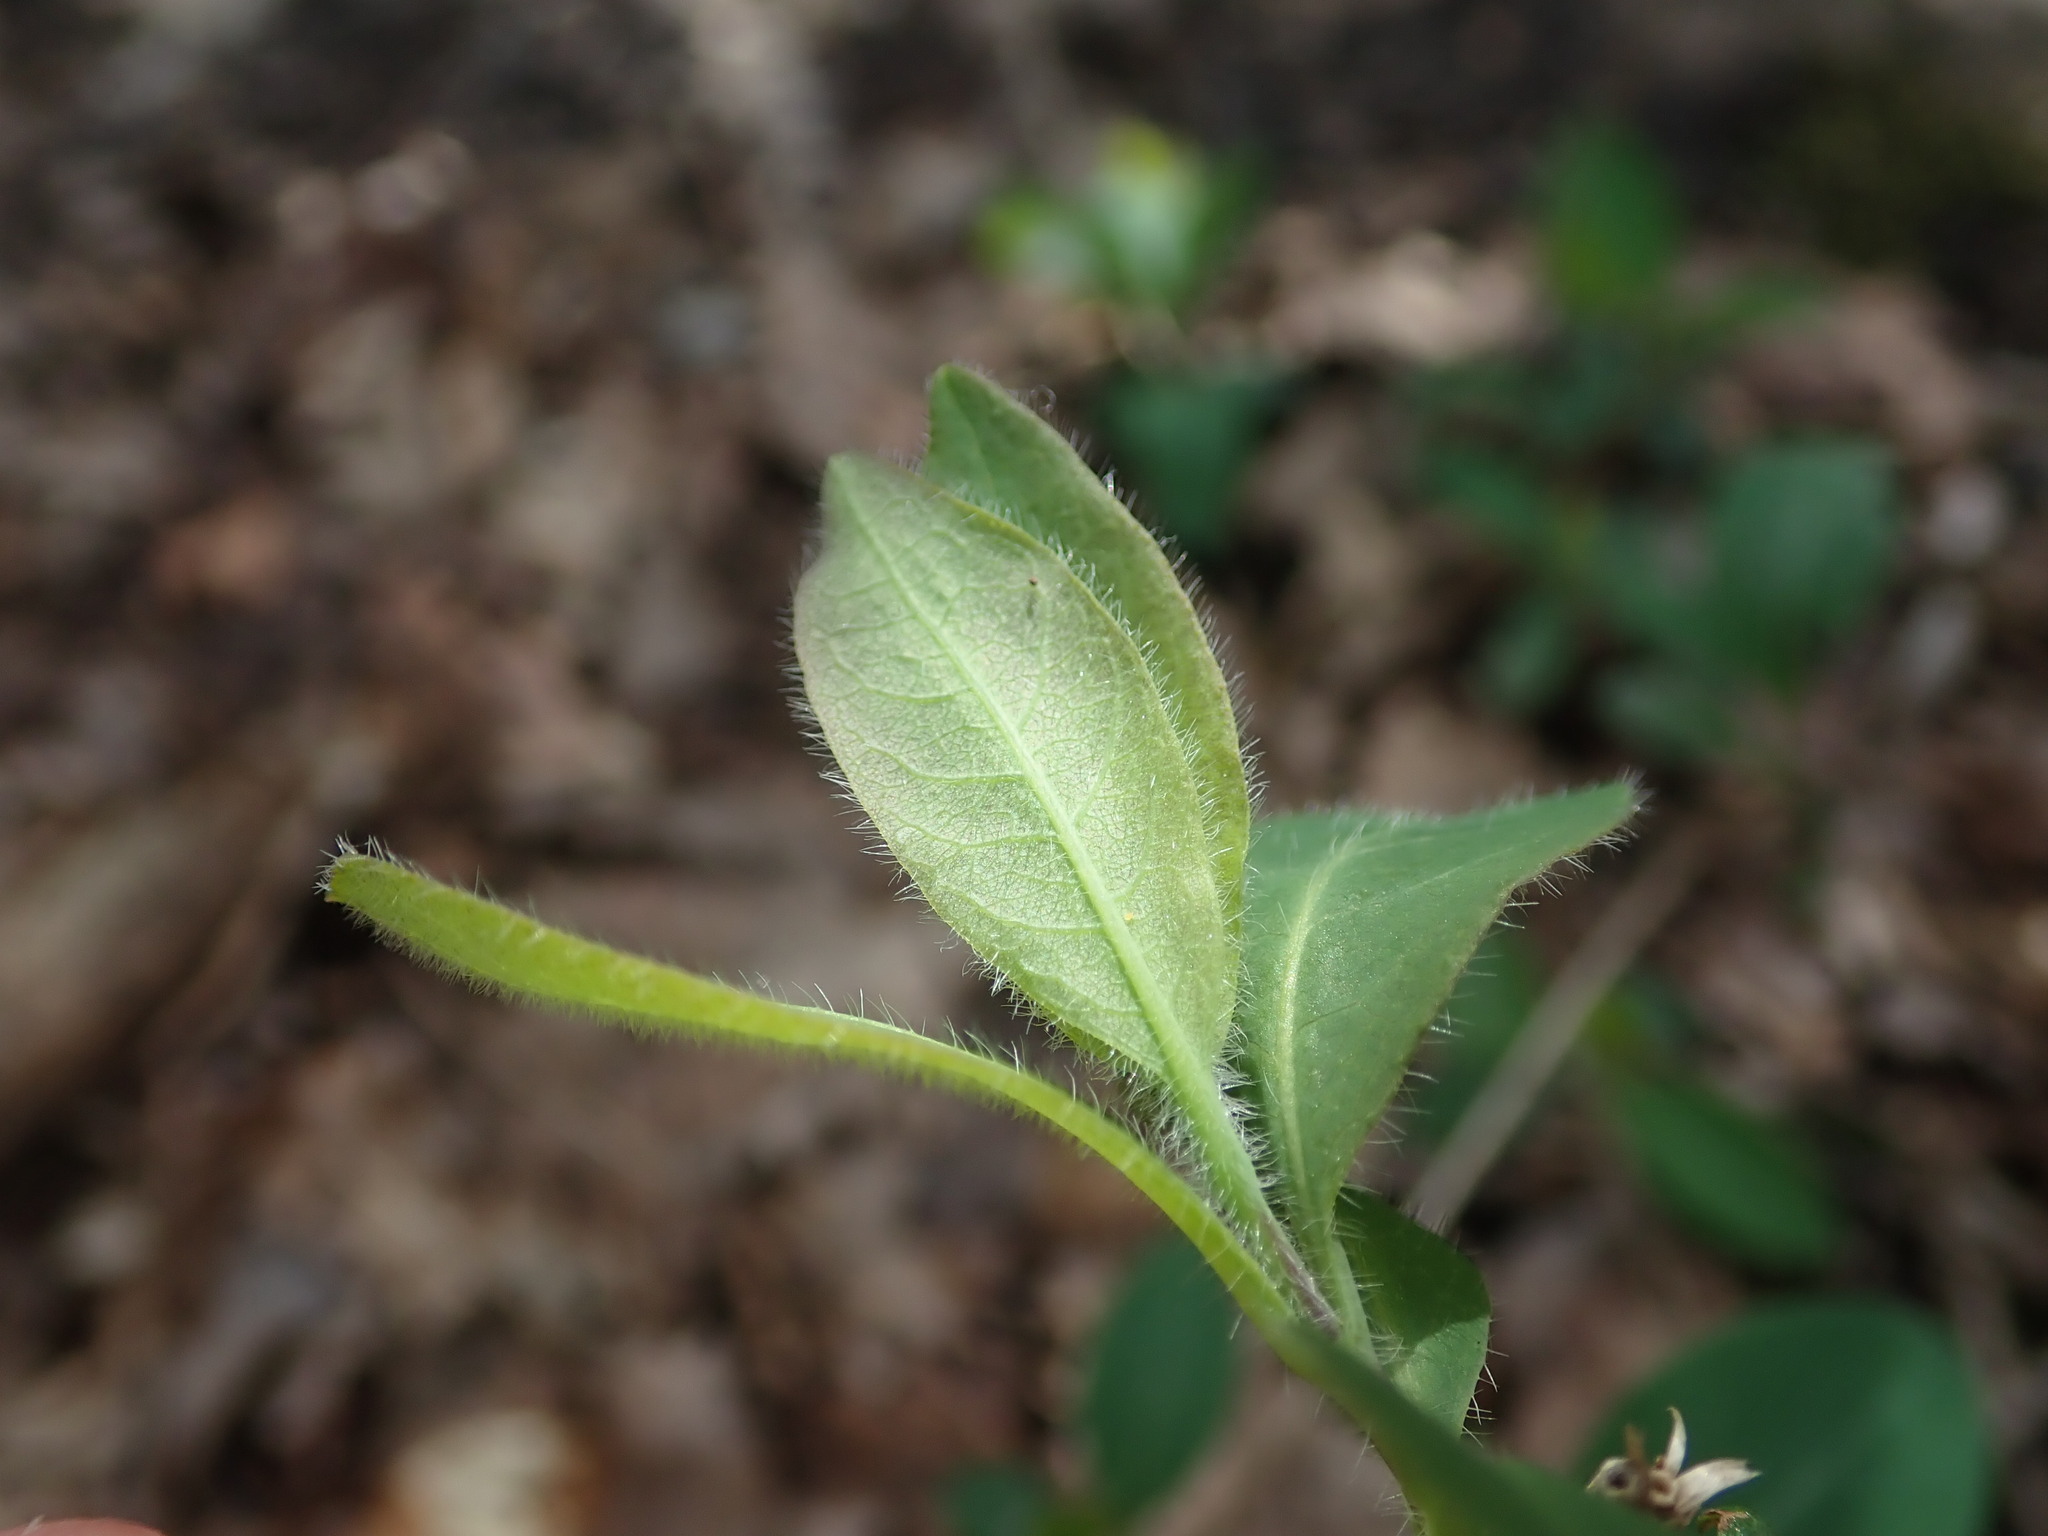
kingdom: Plantae
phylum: Tracheophyta
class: Magnoliopsida
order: Dipsacales
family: Caprifoliaceae
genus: Lonicera
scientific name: Lonicera periclymenum
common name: European honeysuckle
